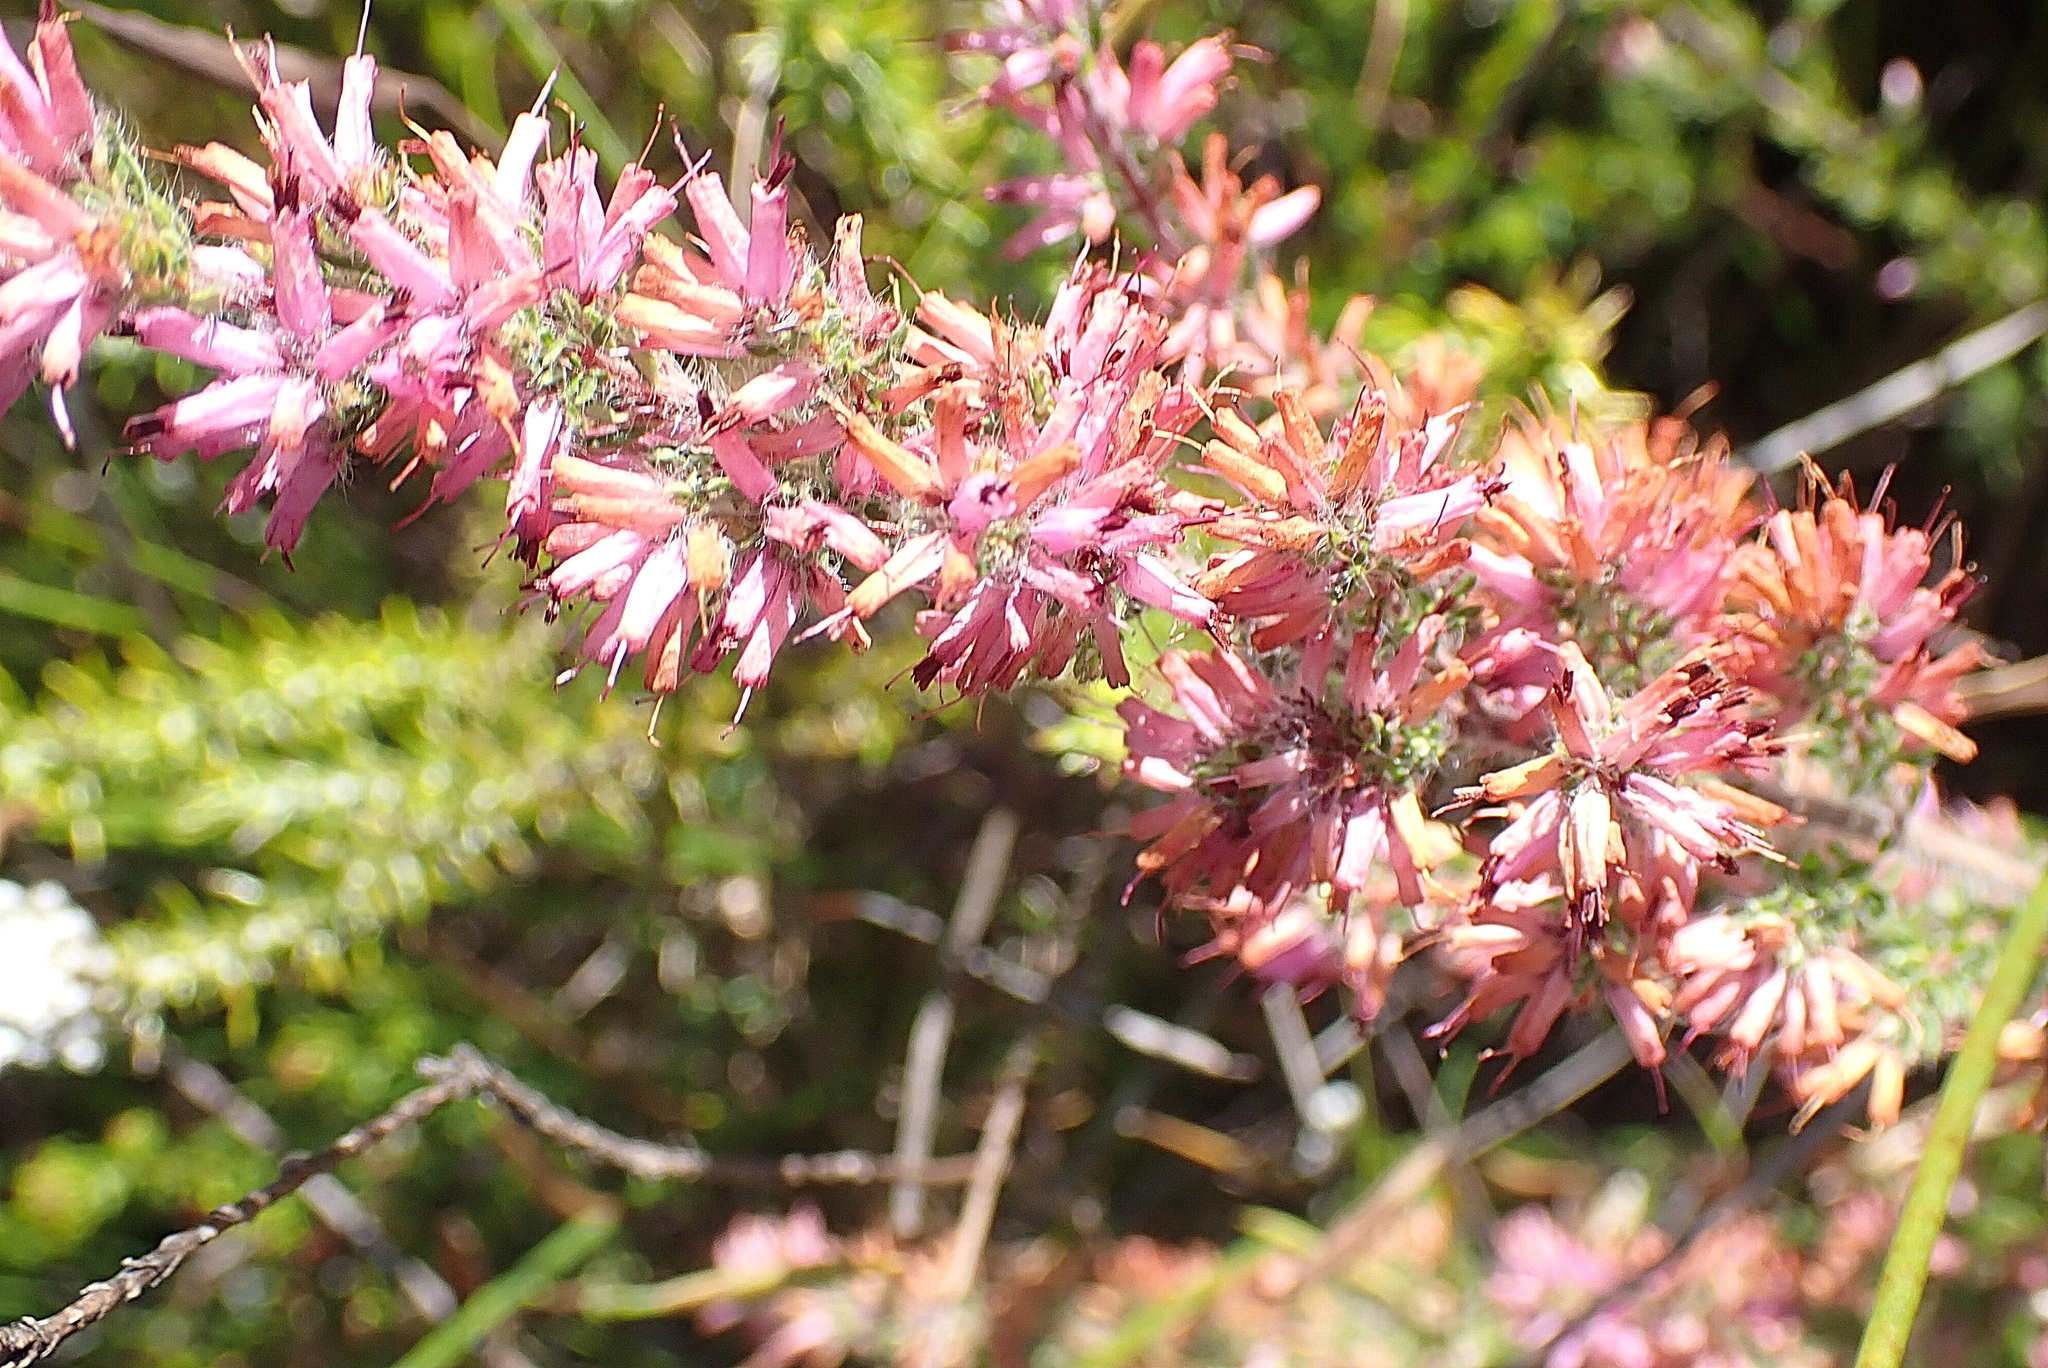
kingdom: Plantae
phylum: Tracheophyta
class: Magnoliopsida
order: Ericales
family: Ericaceae
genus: Erica
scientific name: Erica longimontana
